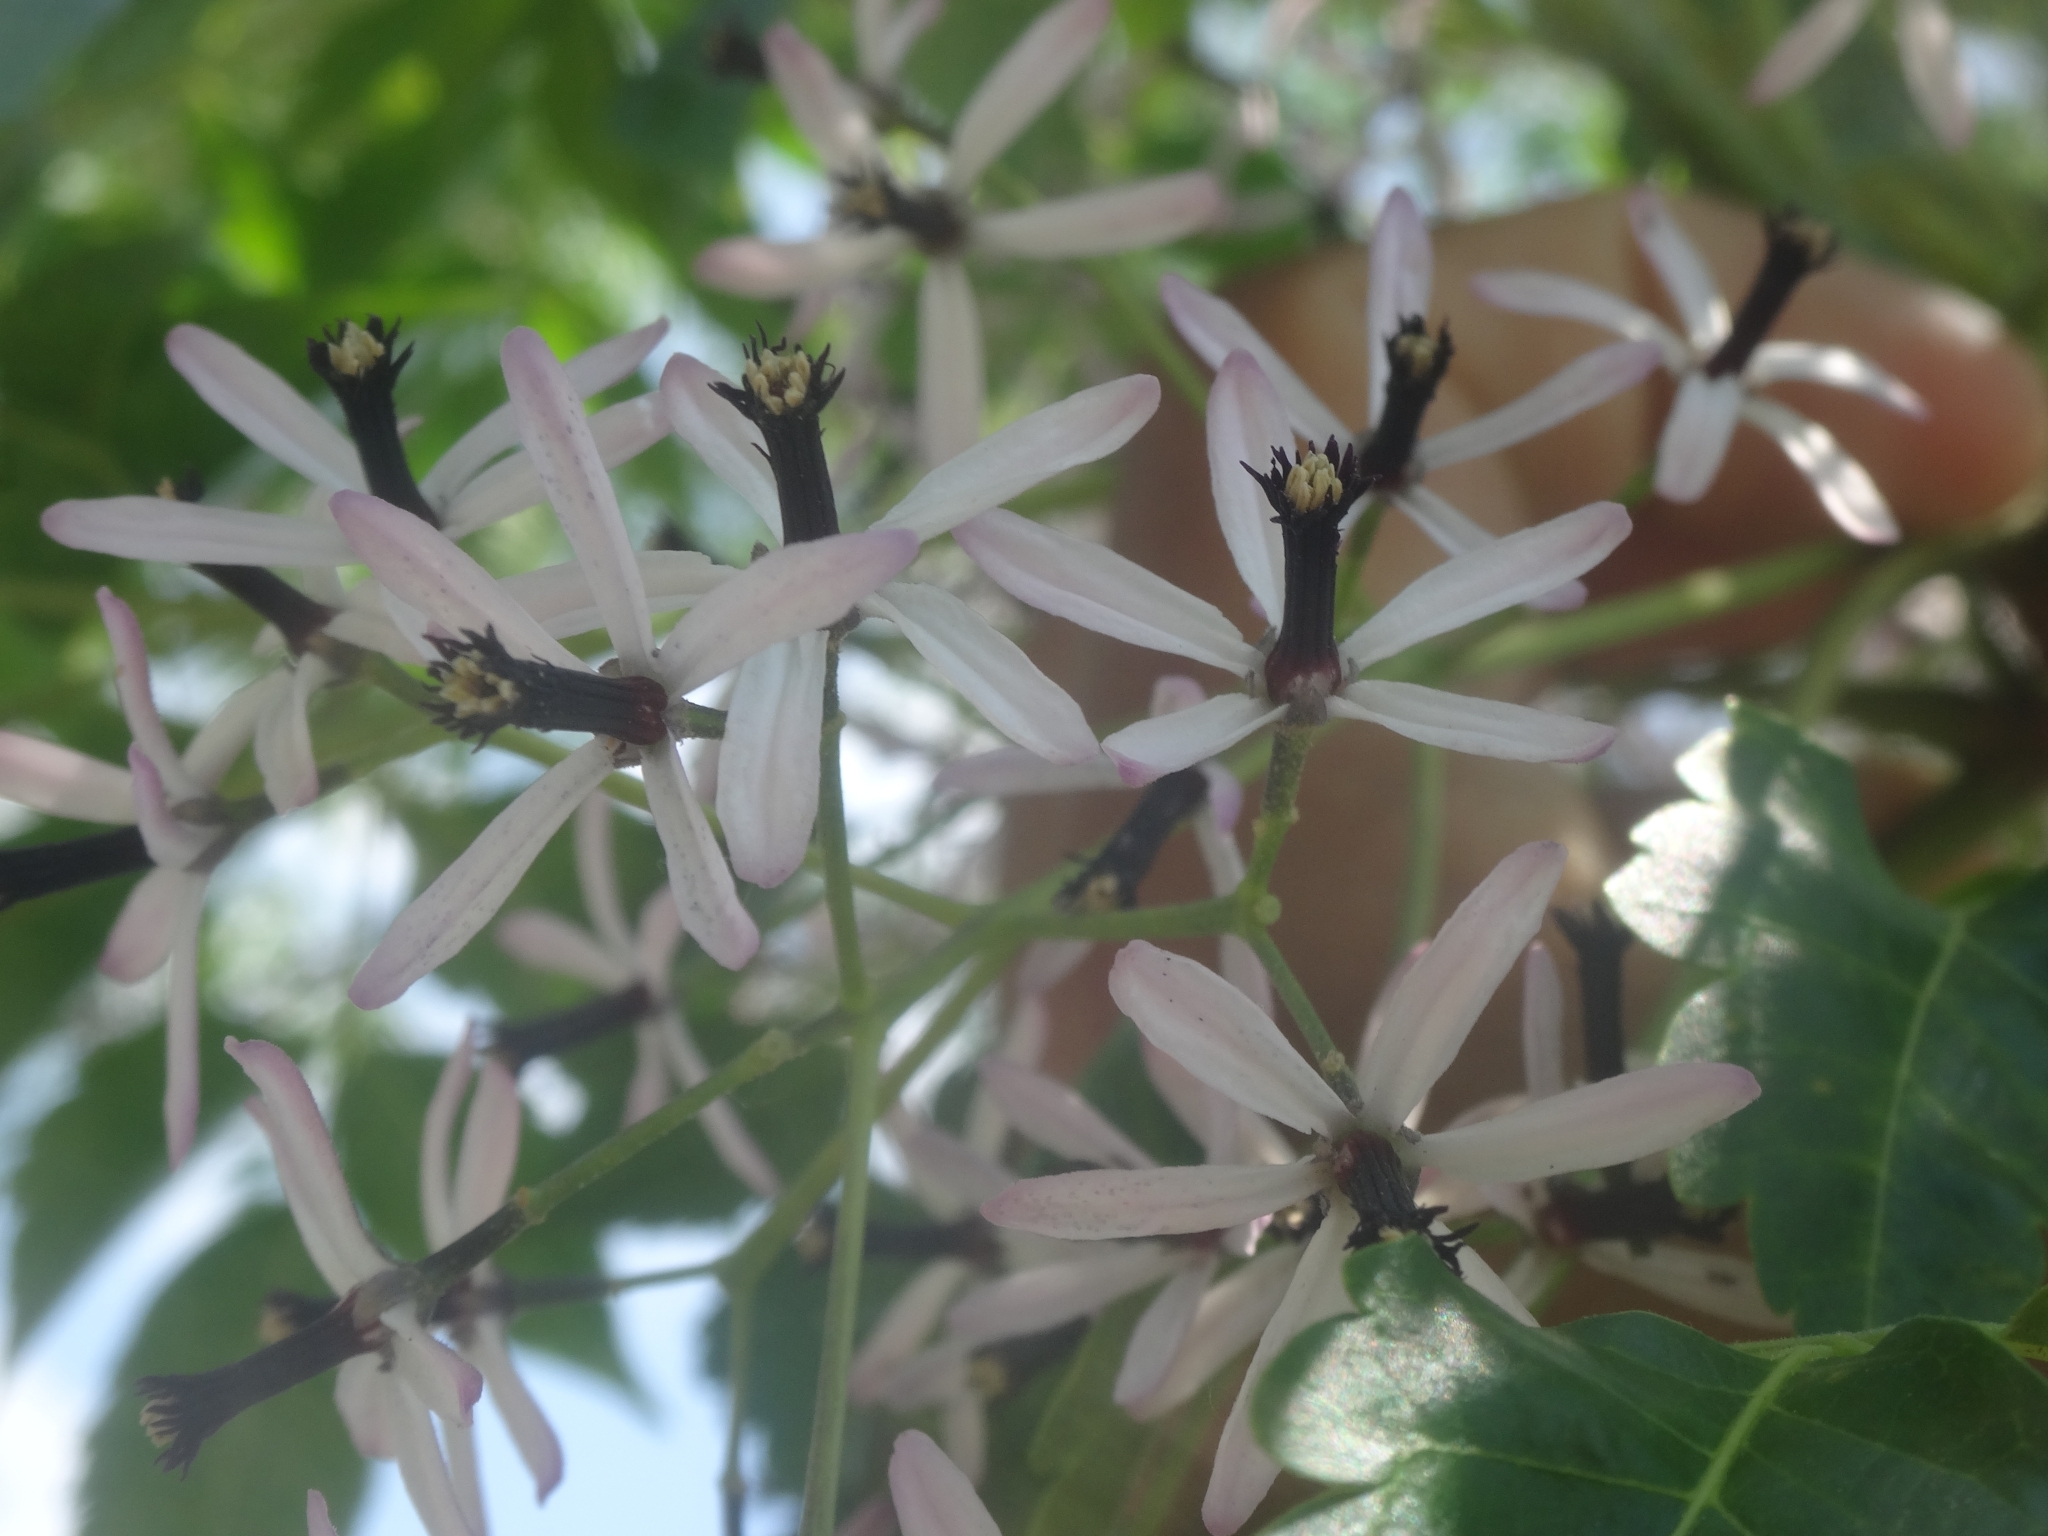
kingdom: Plantae
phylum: Tracheophyta
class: Magnoliopsida
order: Sapindales
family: Meliaceae
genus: Melia
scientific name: Melia azedarach
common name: Chinaberrytree
